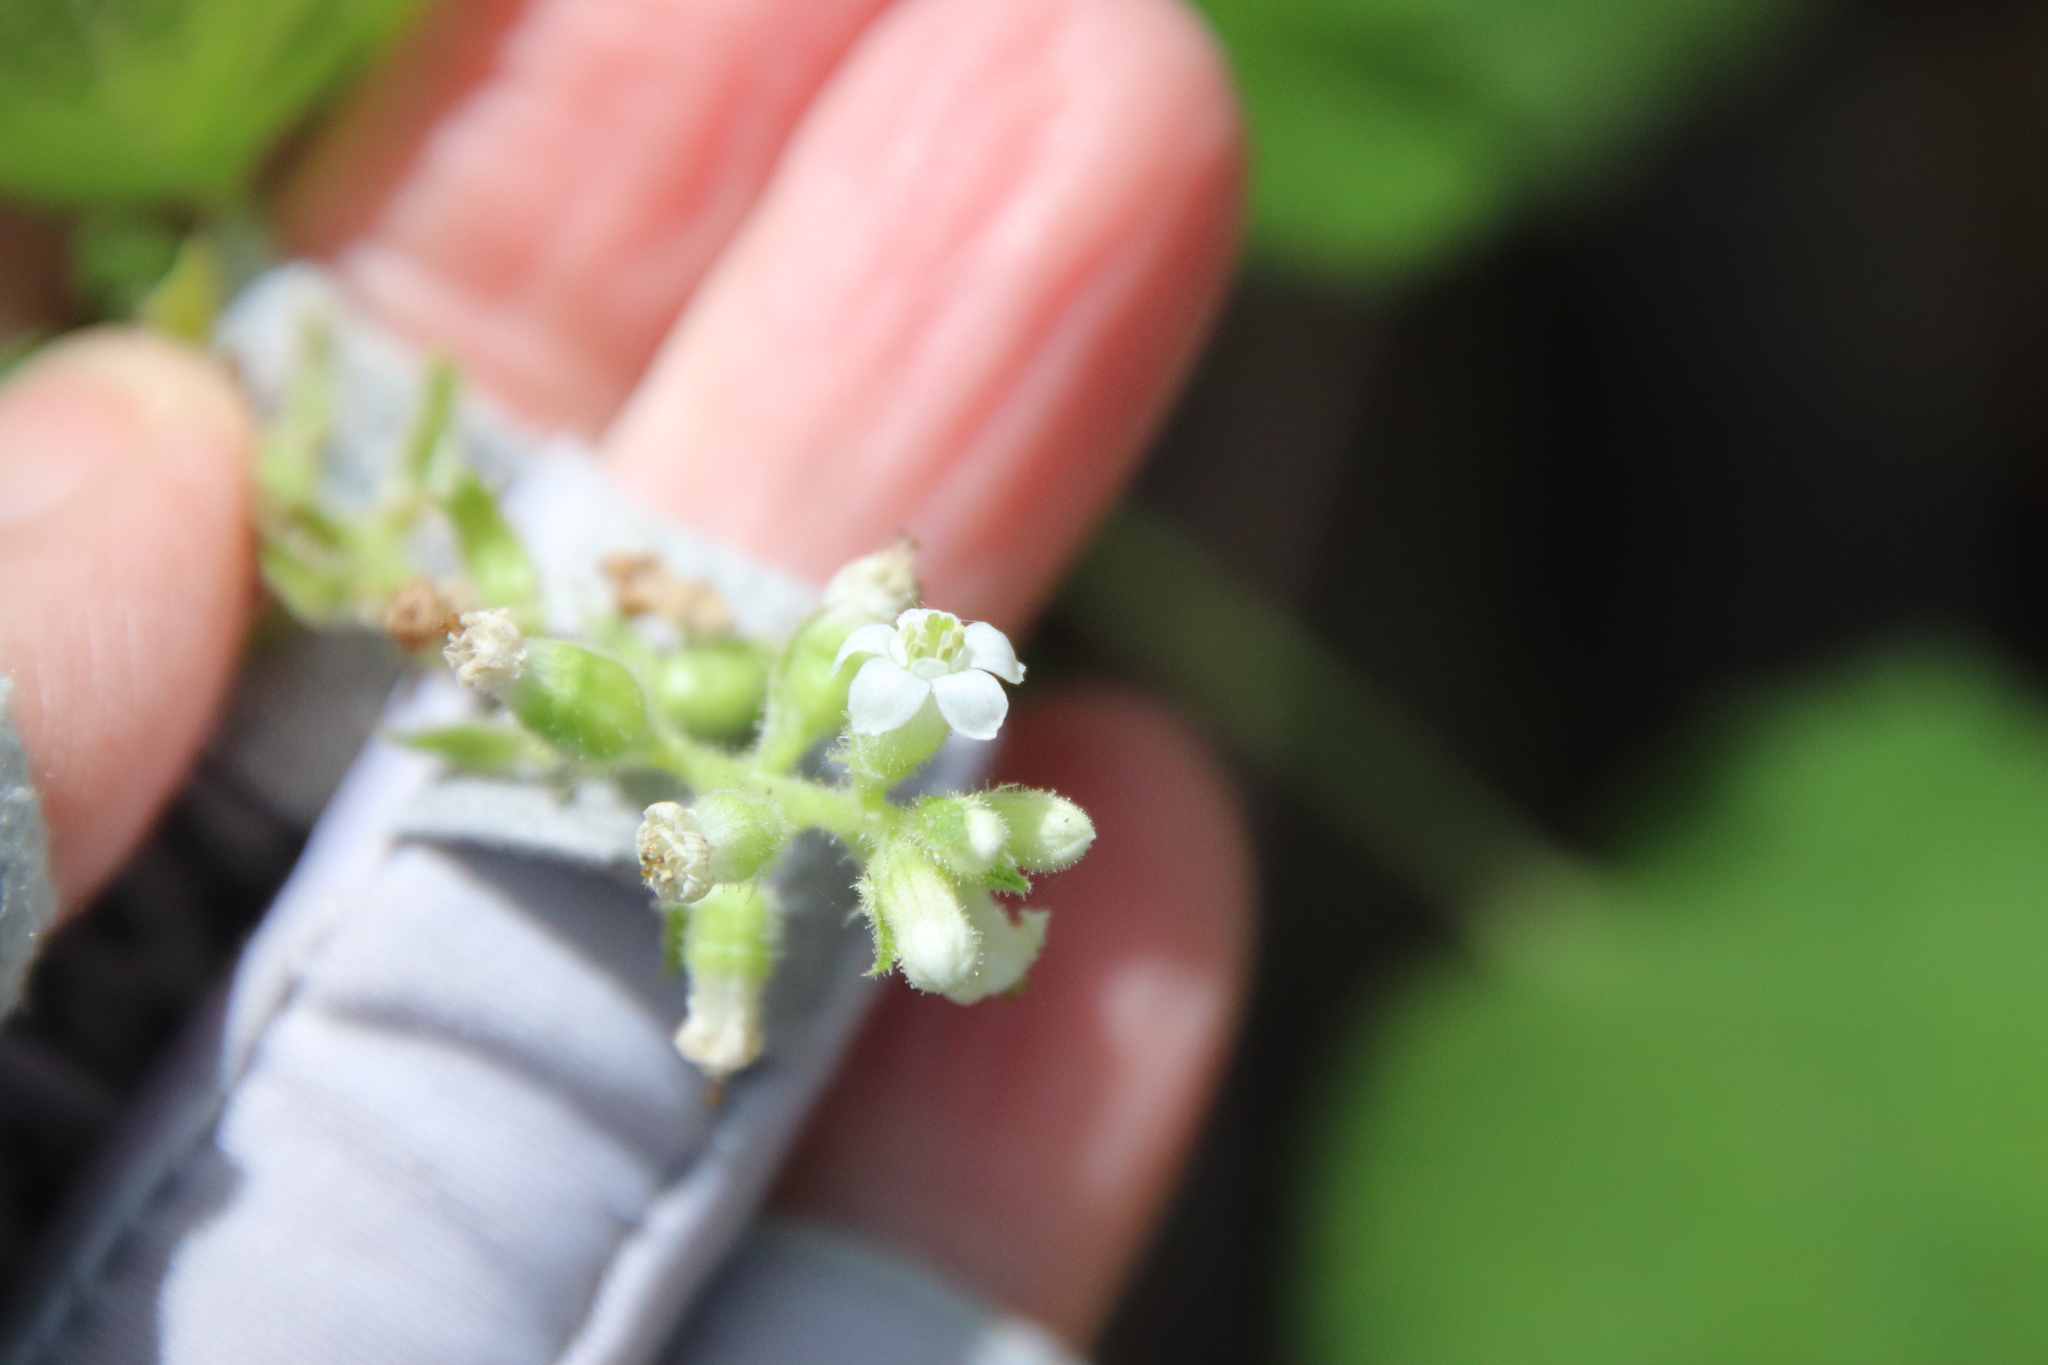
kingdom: Plantae
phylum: Tracheophyta
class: Magnoliopsida
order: Saxifragales
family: Grossulariaceae
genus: Ribes
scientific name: Ribes indecorum
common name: White-flower currant
